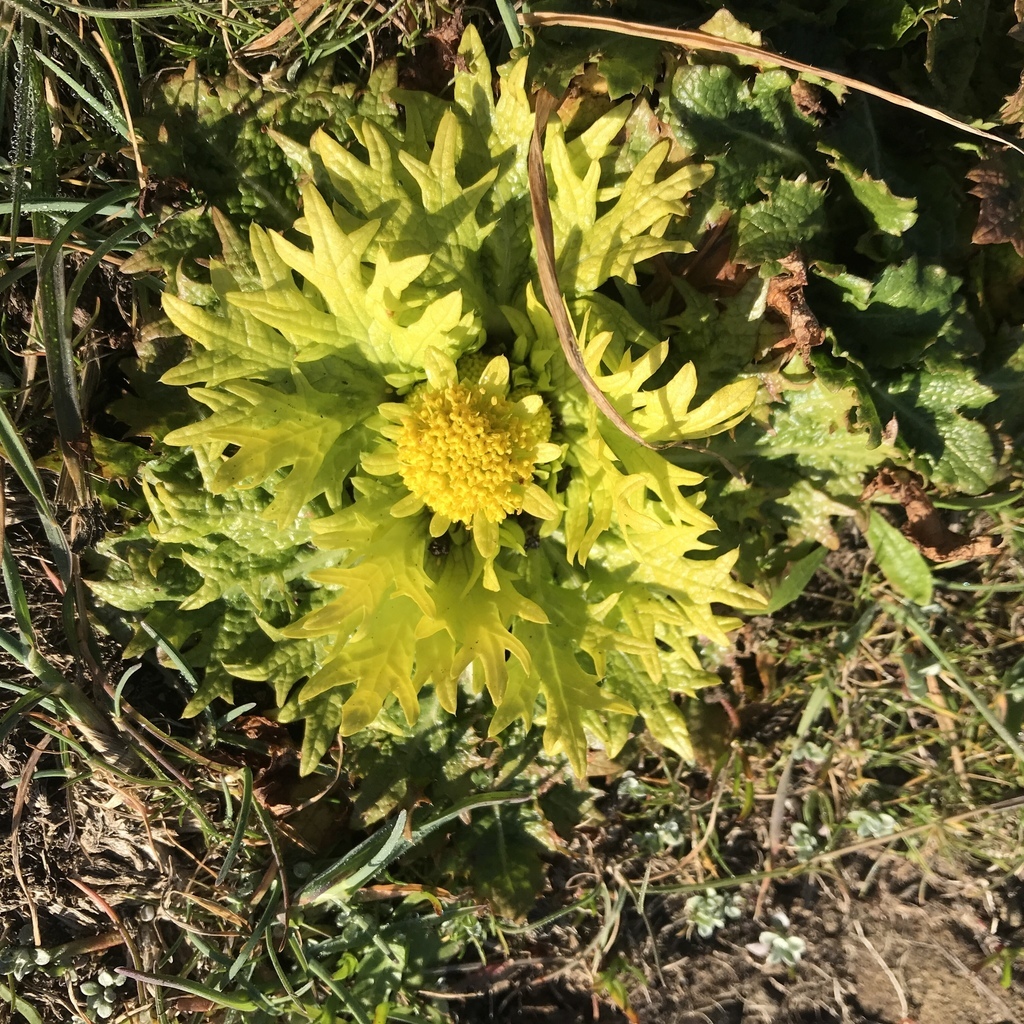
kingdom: Plantae
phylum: Tracheophyta
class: Magnoliopsida
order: Apiales
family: Apiaceae
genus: Sanicula
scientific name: Sanicula arctopoides
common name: Footsteps-of-spring
